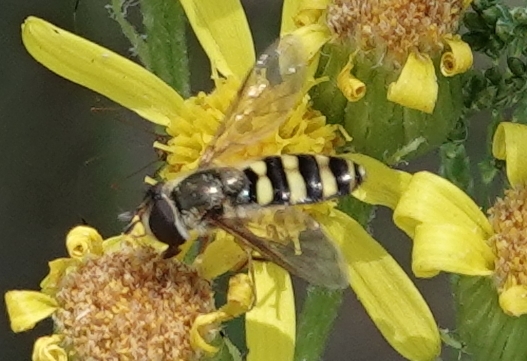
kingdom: Animalia
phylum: Arthropoda
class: Insecta
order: Diptera
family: Syrphidae
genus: Eupeodes
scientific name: Eupeodes
